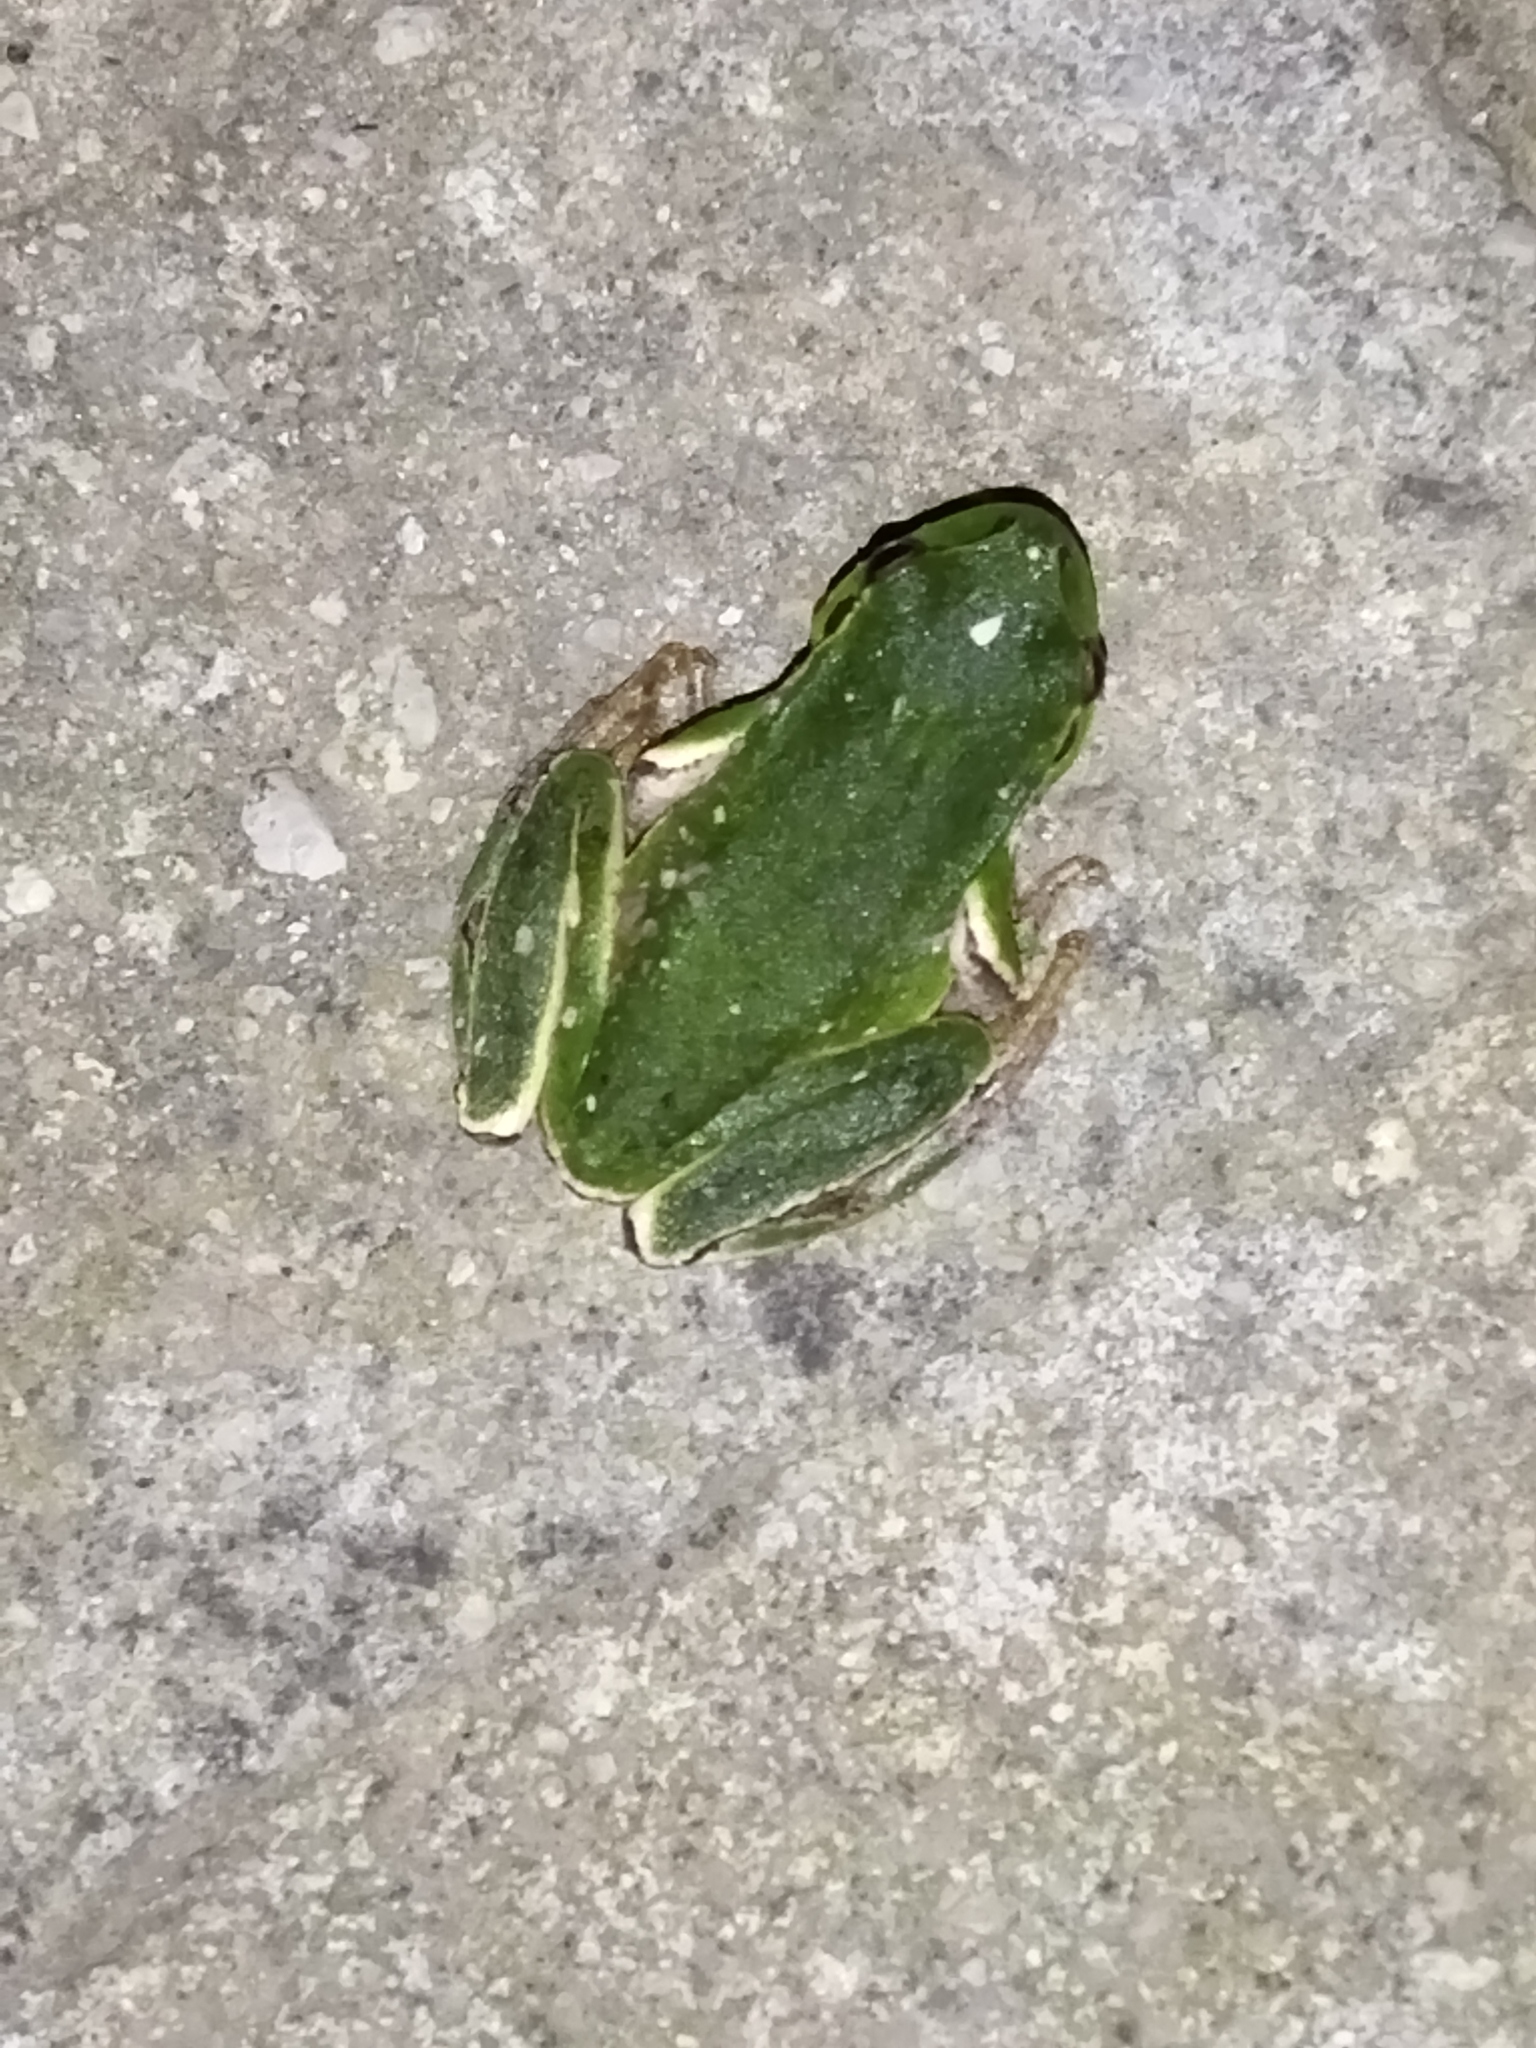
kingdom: Animalia
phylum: Chordata
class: Amphibia
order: Anura
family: Hylidae
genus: Hyla
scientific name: Hyla orientalis
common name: Caucasian treefrog
